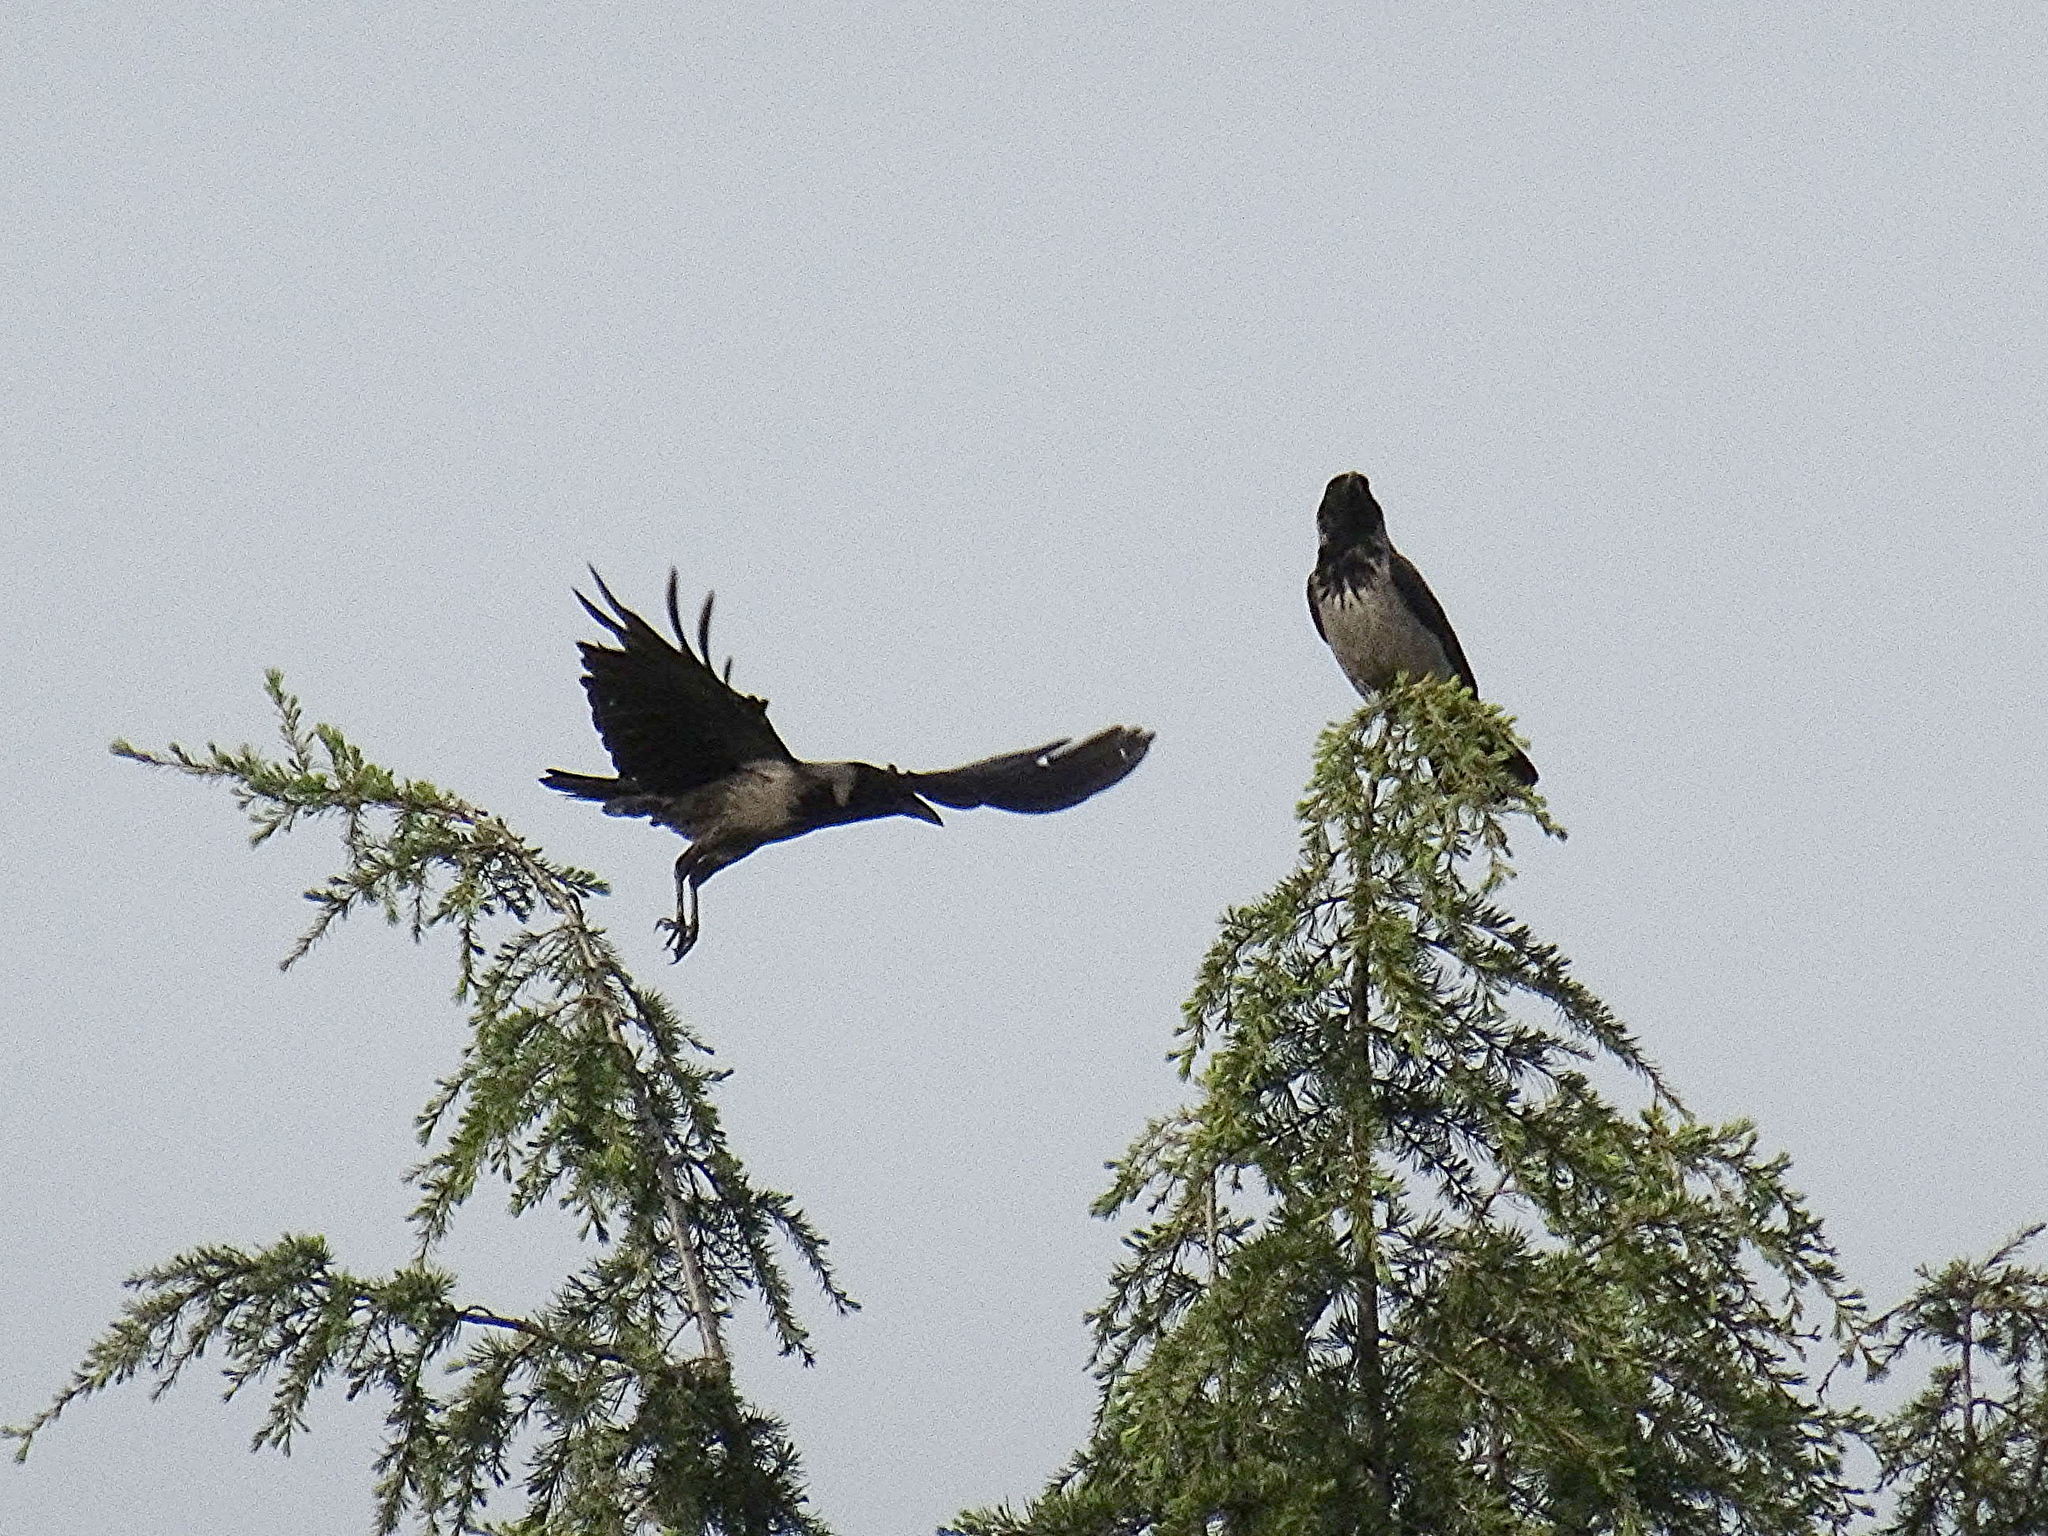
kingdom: Animalia
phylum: Chordata
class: Aves
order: Passeriformes
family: Corvidae
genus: Corvus
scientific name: Corvus cornix
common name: Hooded crow
